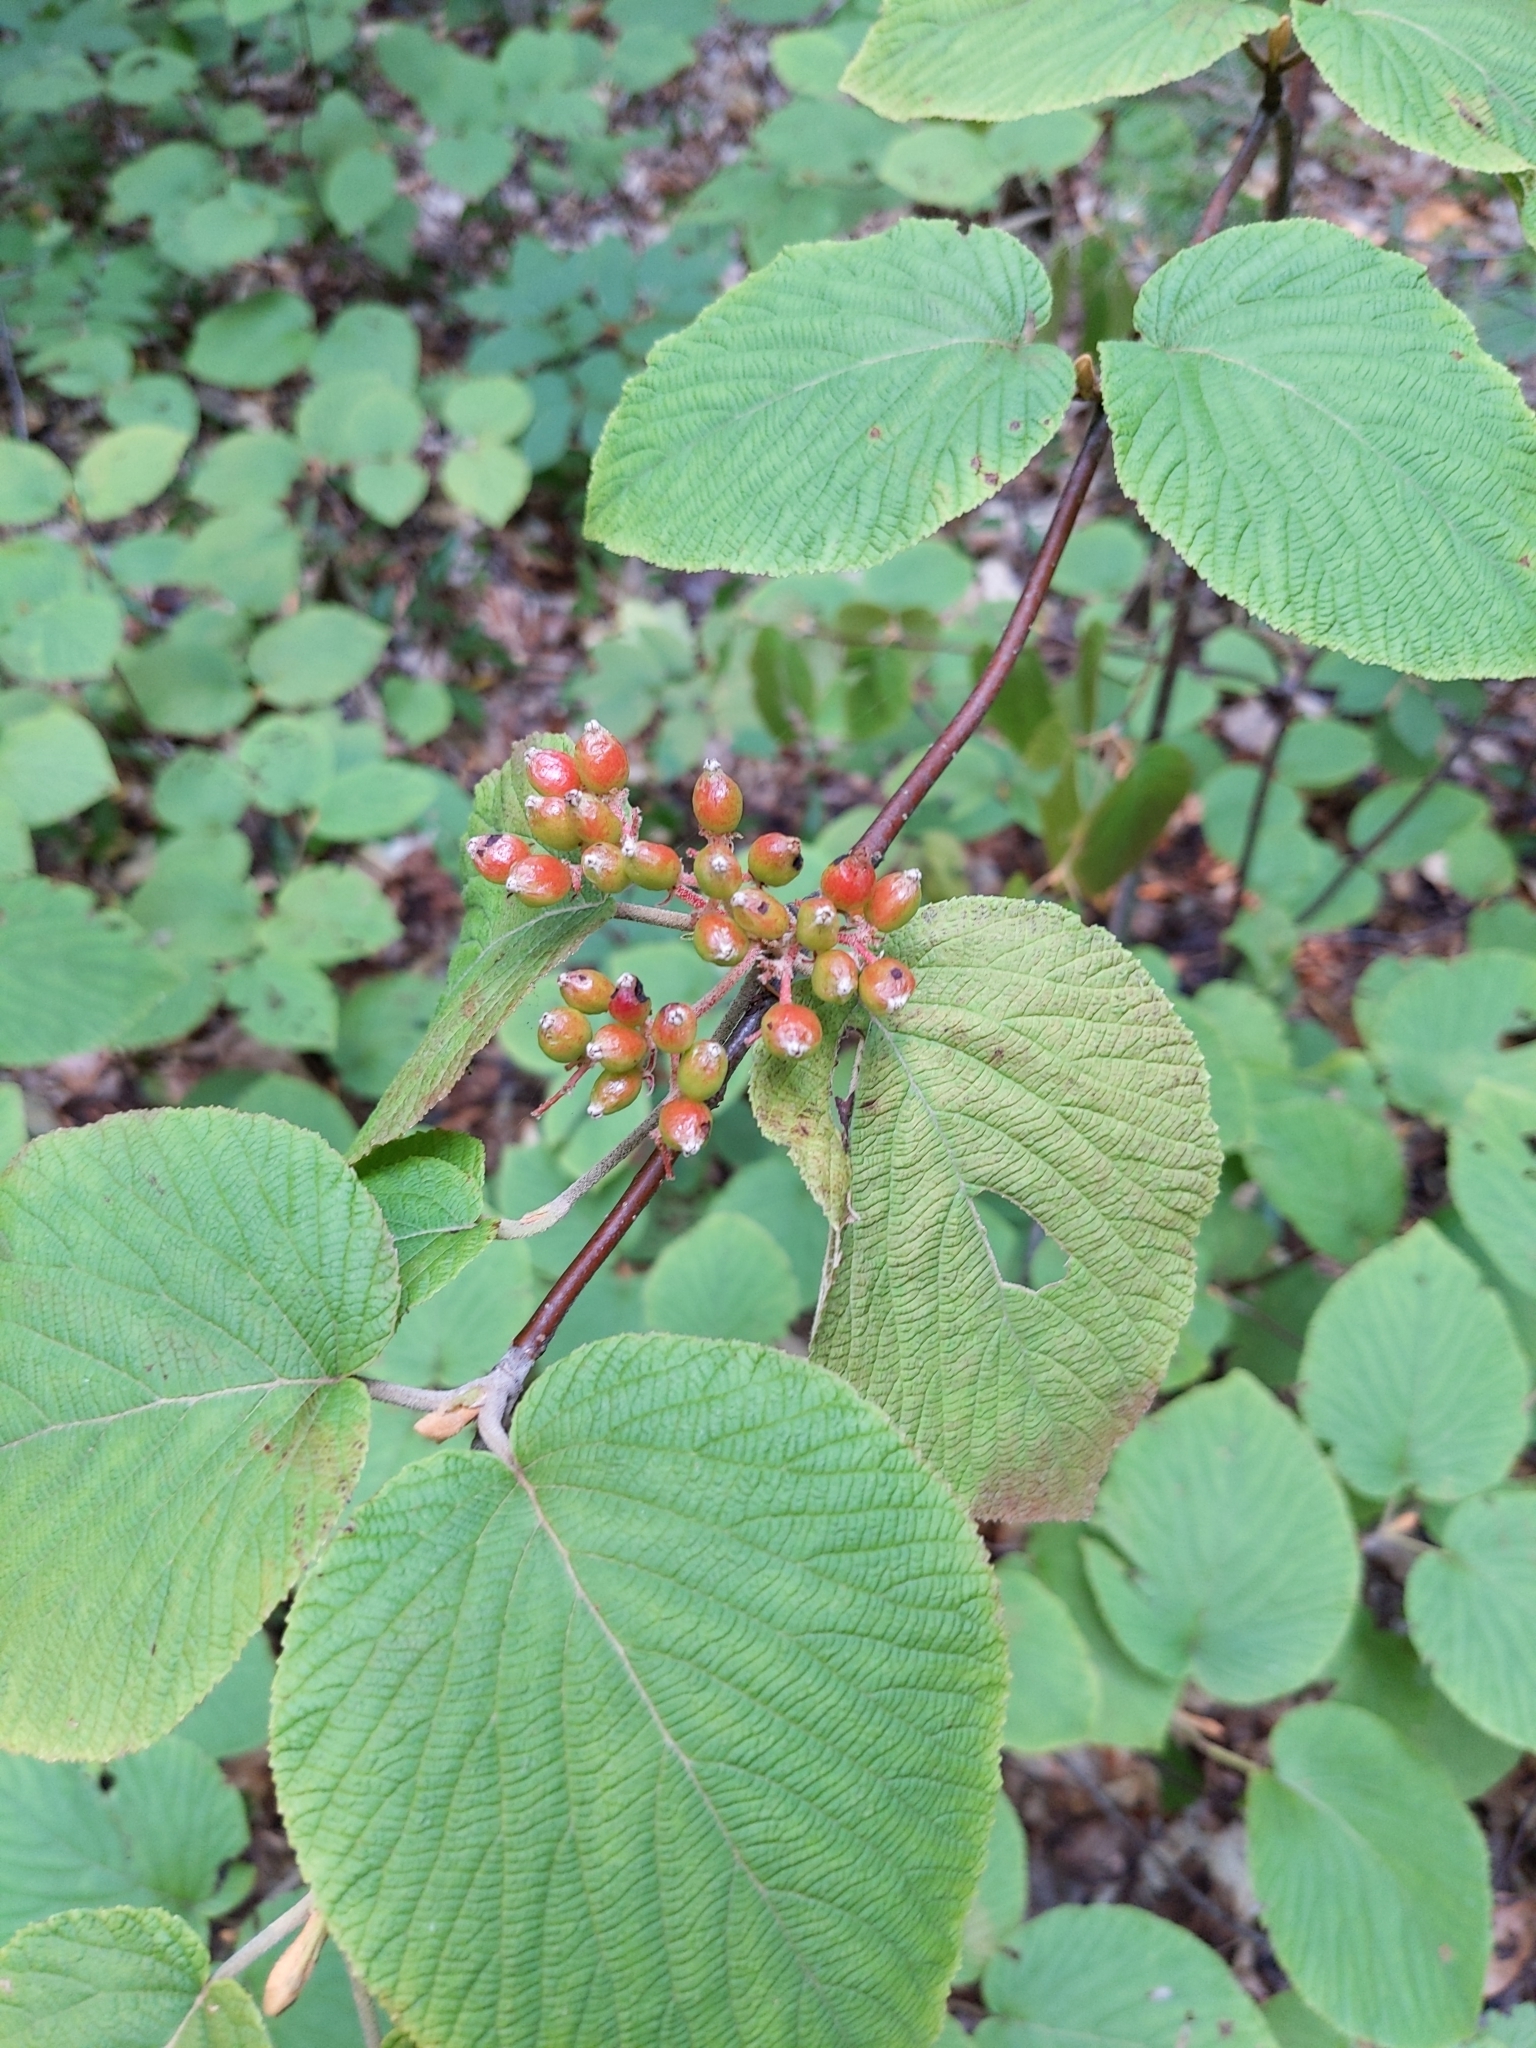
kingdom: Plantae
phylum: Tracheophyta
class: Magnoliopsida
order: Dipsacales
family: Viburnaceae
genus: Viburnum
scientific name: Viburnum lantanoides
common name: Hobblebush
